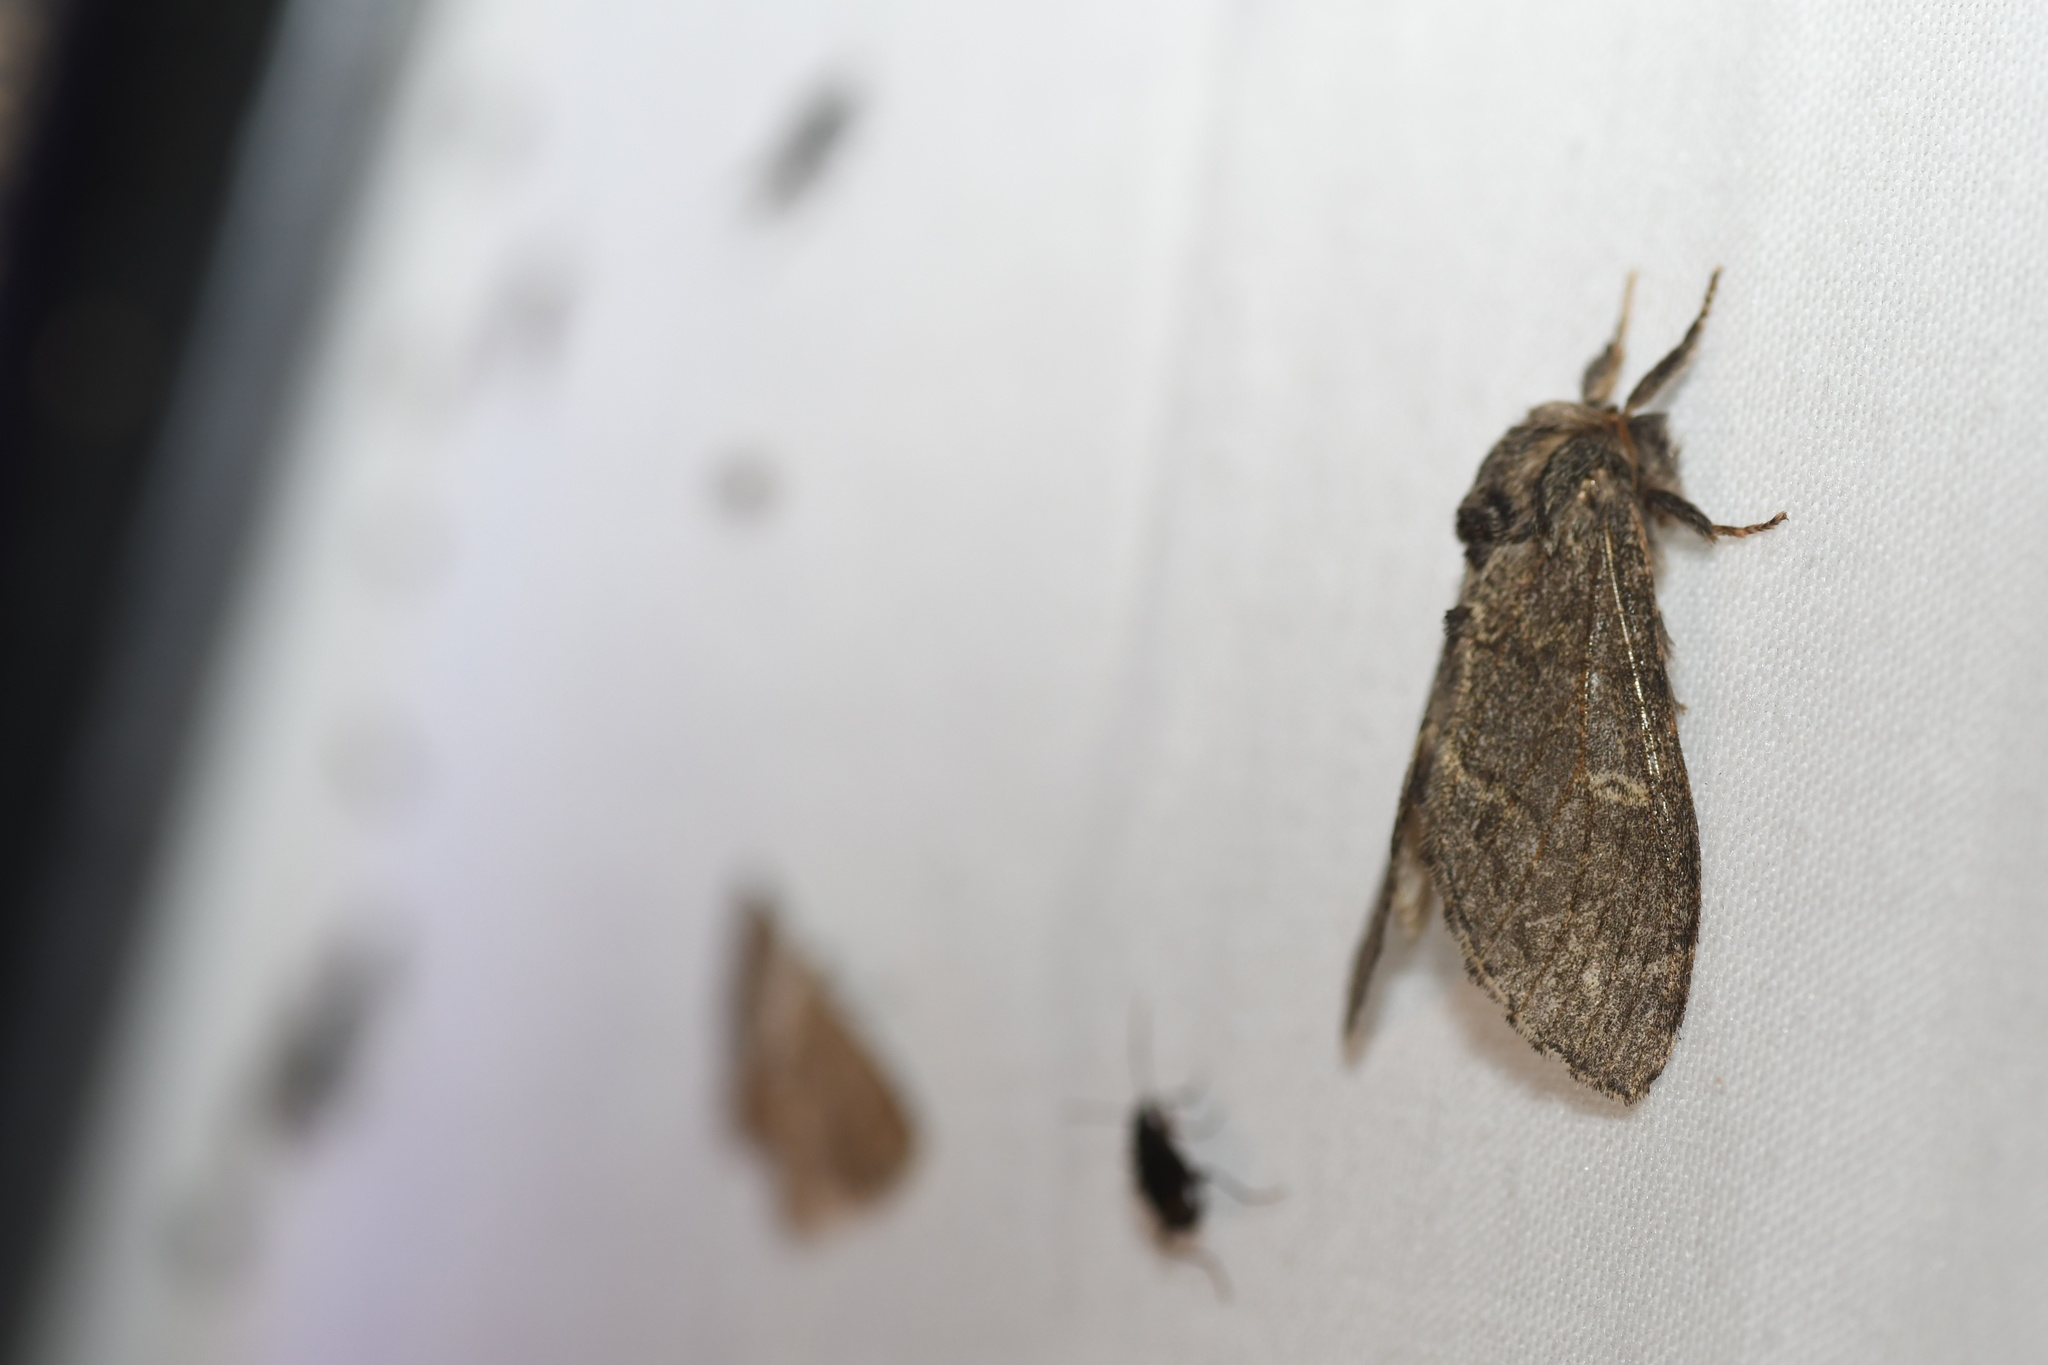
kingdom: Animalia
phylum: Arthropoda
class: Insecta
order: Lepidoptera
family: Notodontidae
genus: Notodonta
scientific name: Notodonta torva
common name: Large dark prominent
